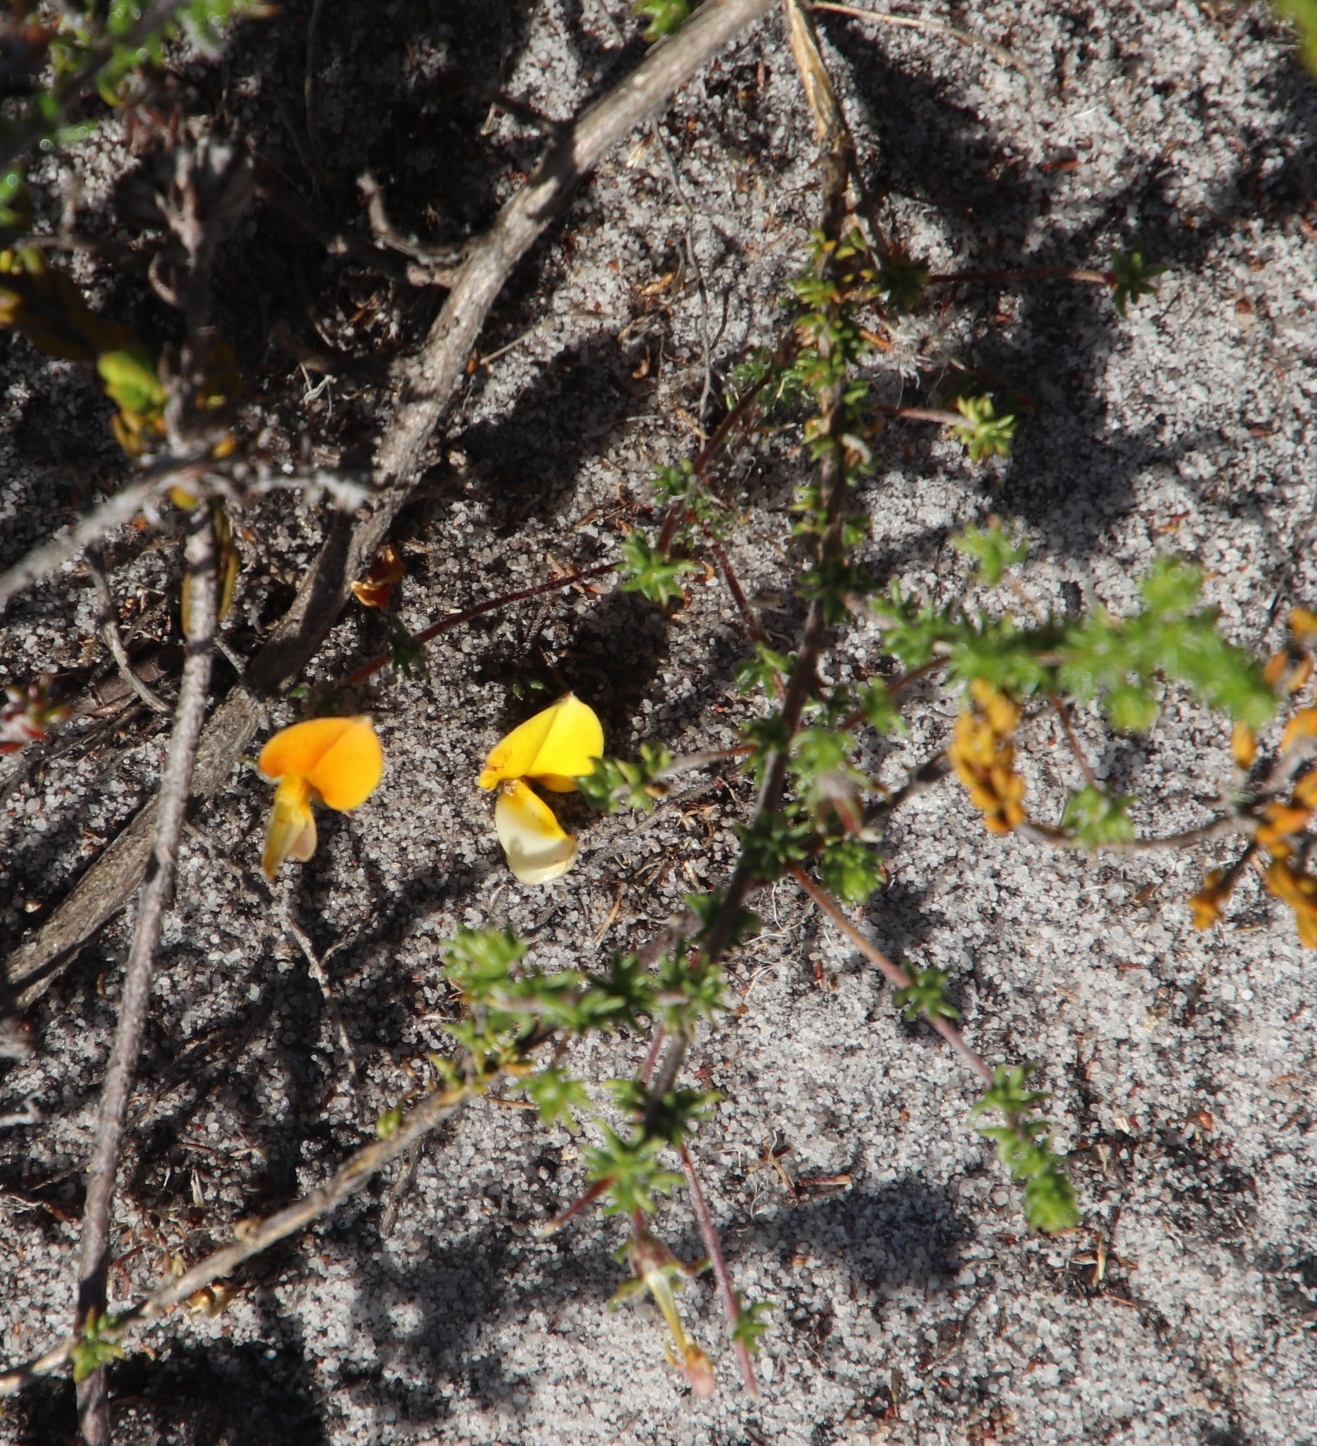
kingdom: Plantae
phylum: Tracheophyta
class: Magnoliopsida
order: Fabales
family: Fabaceae
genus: Aspalathus
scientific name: Aspalathus retroflexa
